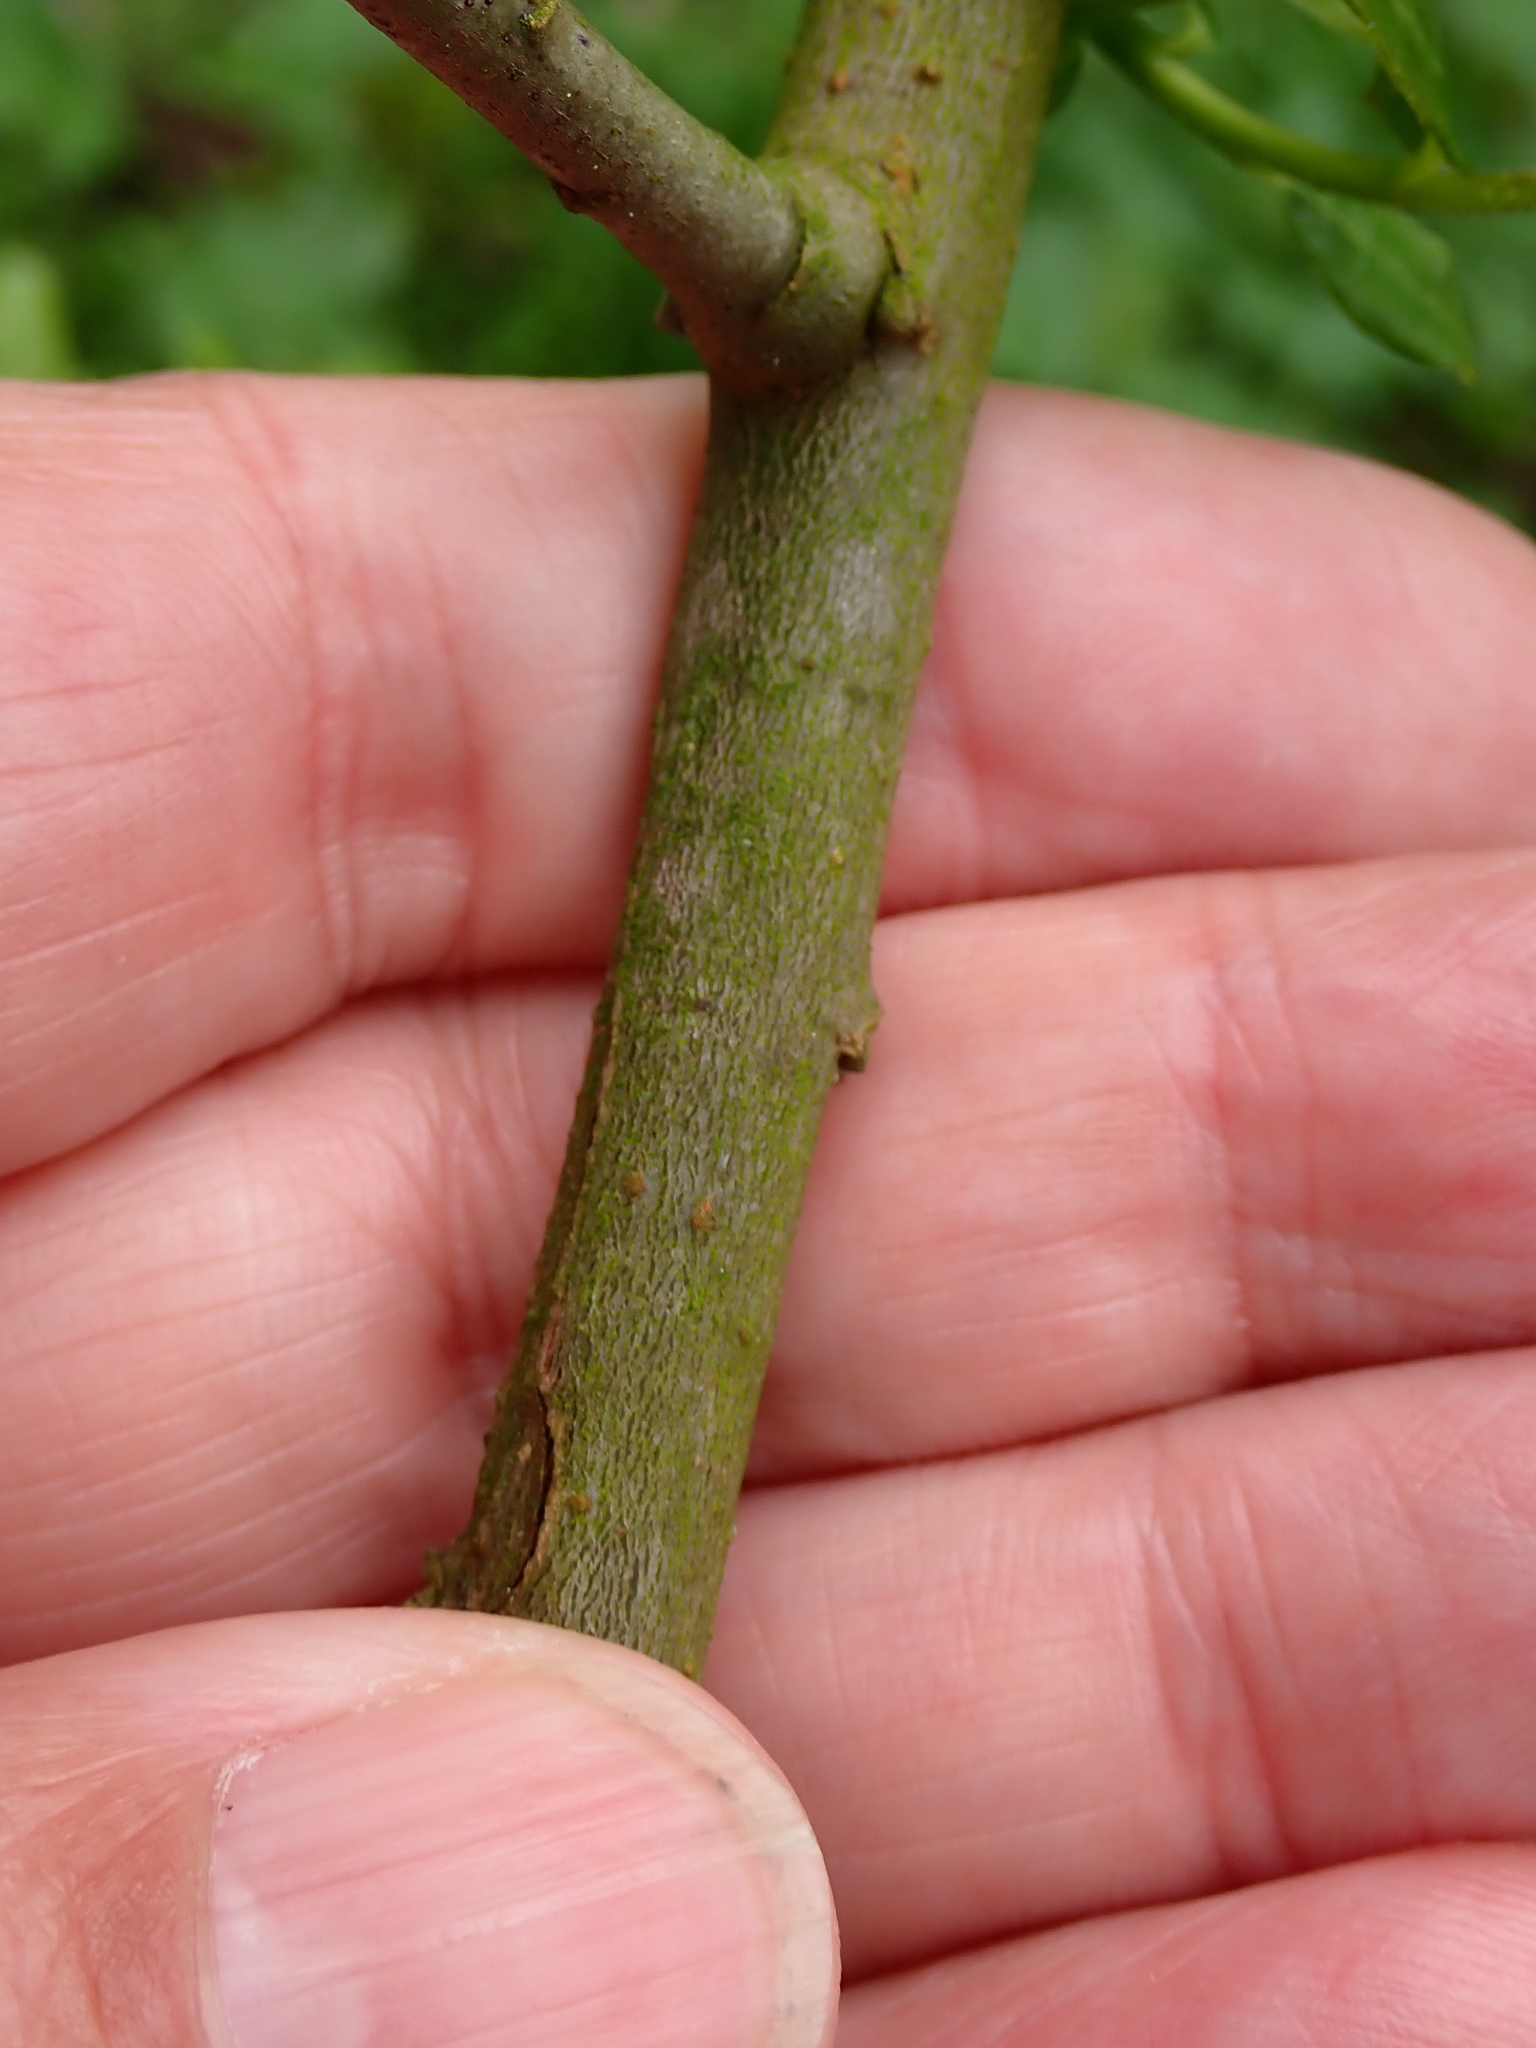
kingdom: Plantae
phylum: Tracheophyta
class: Magnoliopsida
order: Malpighiales
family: Salicaceae
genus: Salix
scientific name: Salix caprea
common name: Goat willow
